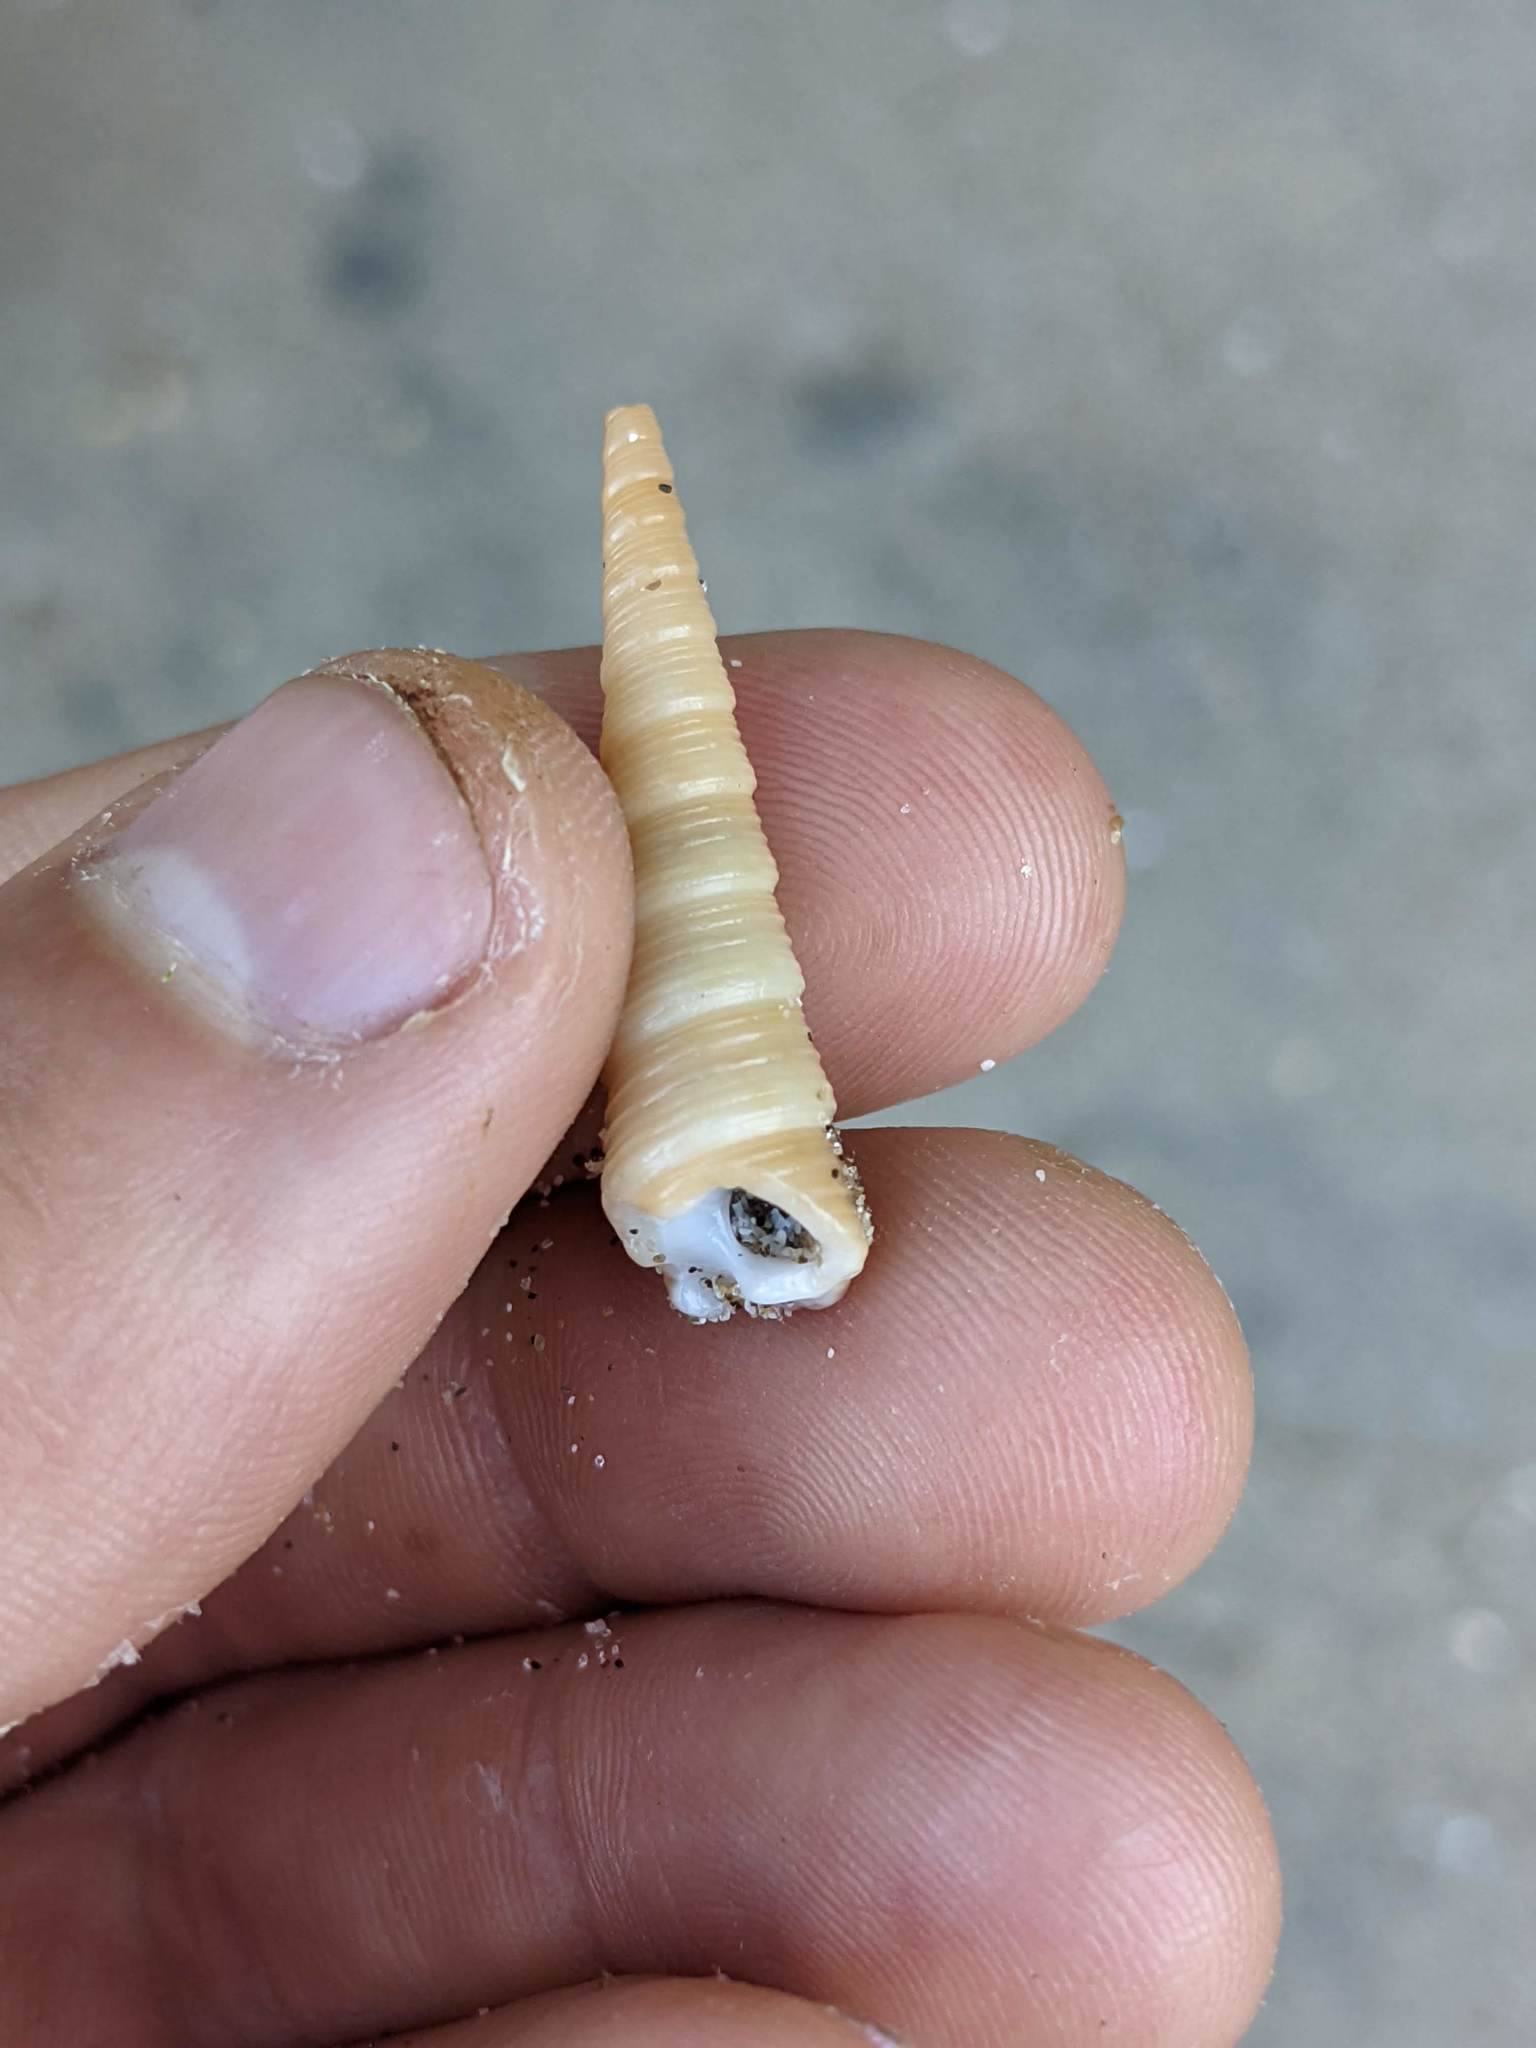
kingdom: Animalia
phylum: Mollusca
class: Gastropoda
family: Turritellidae
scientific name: Turritellidae
